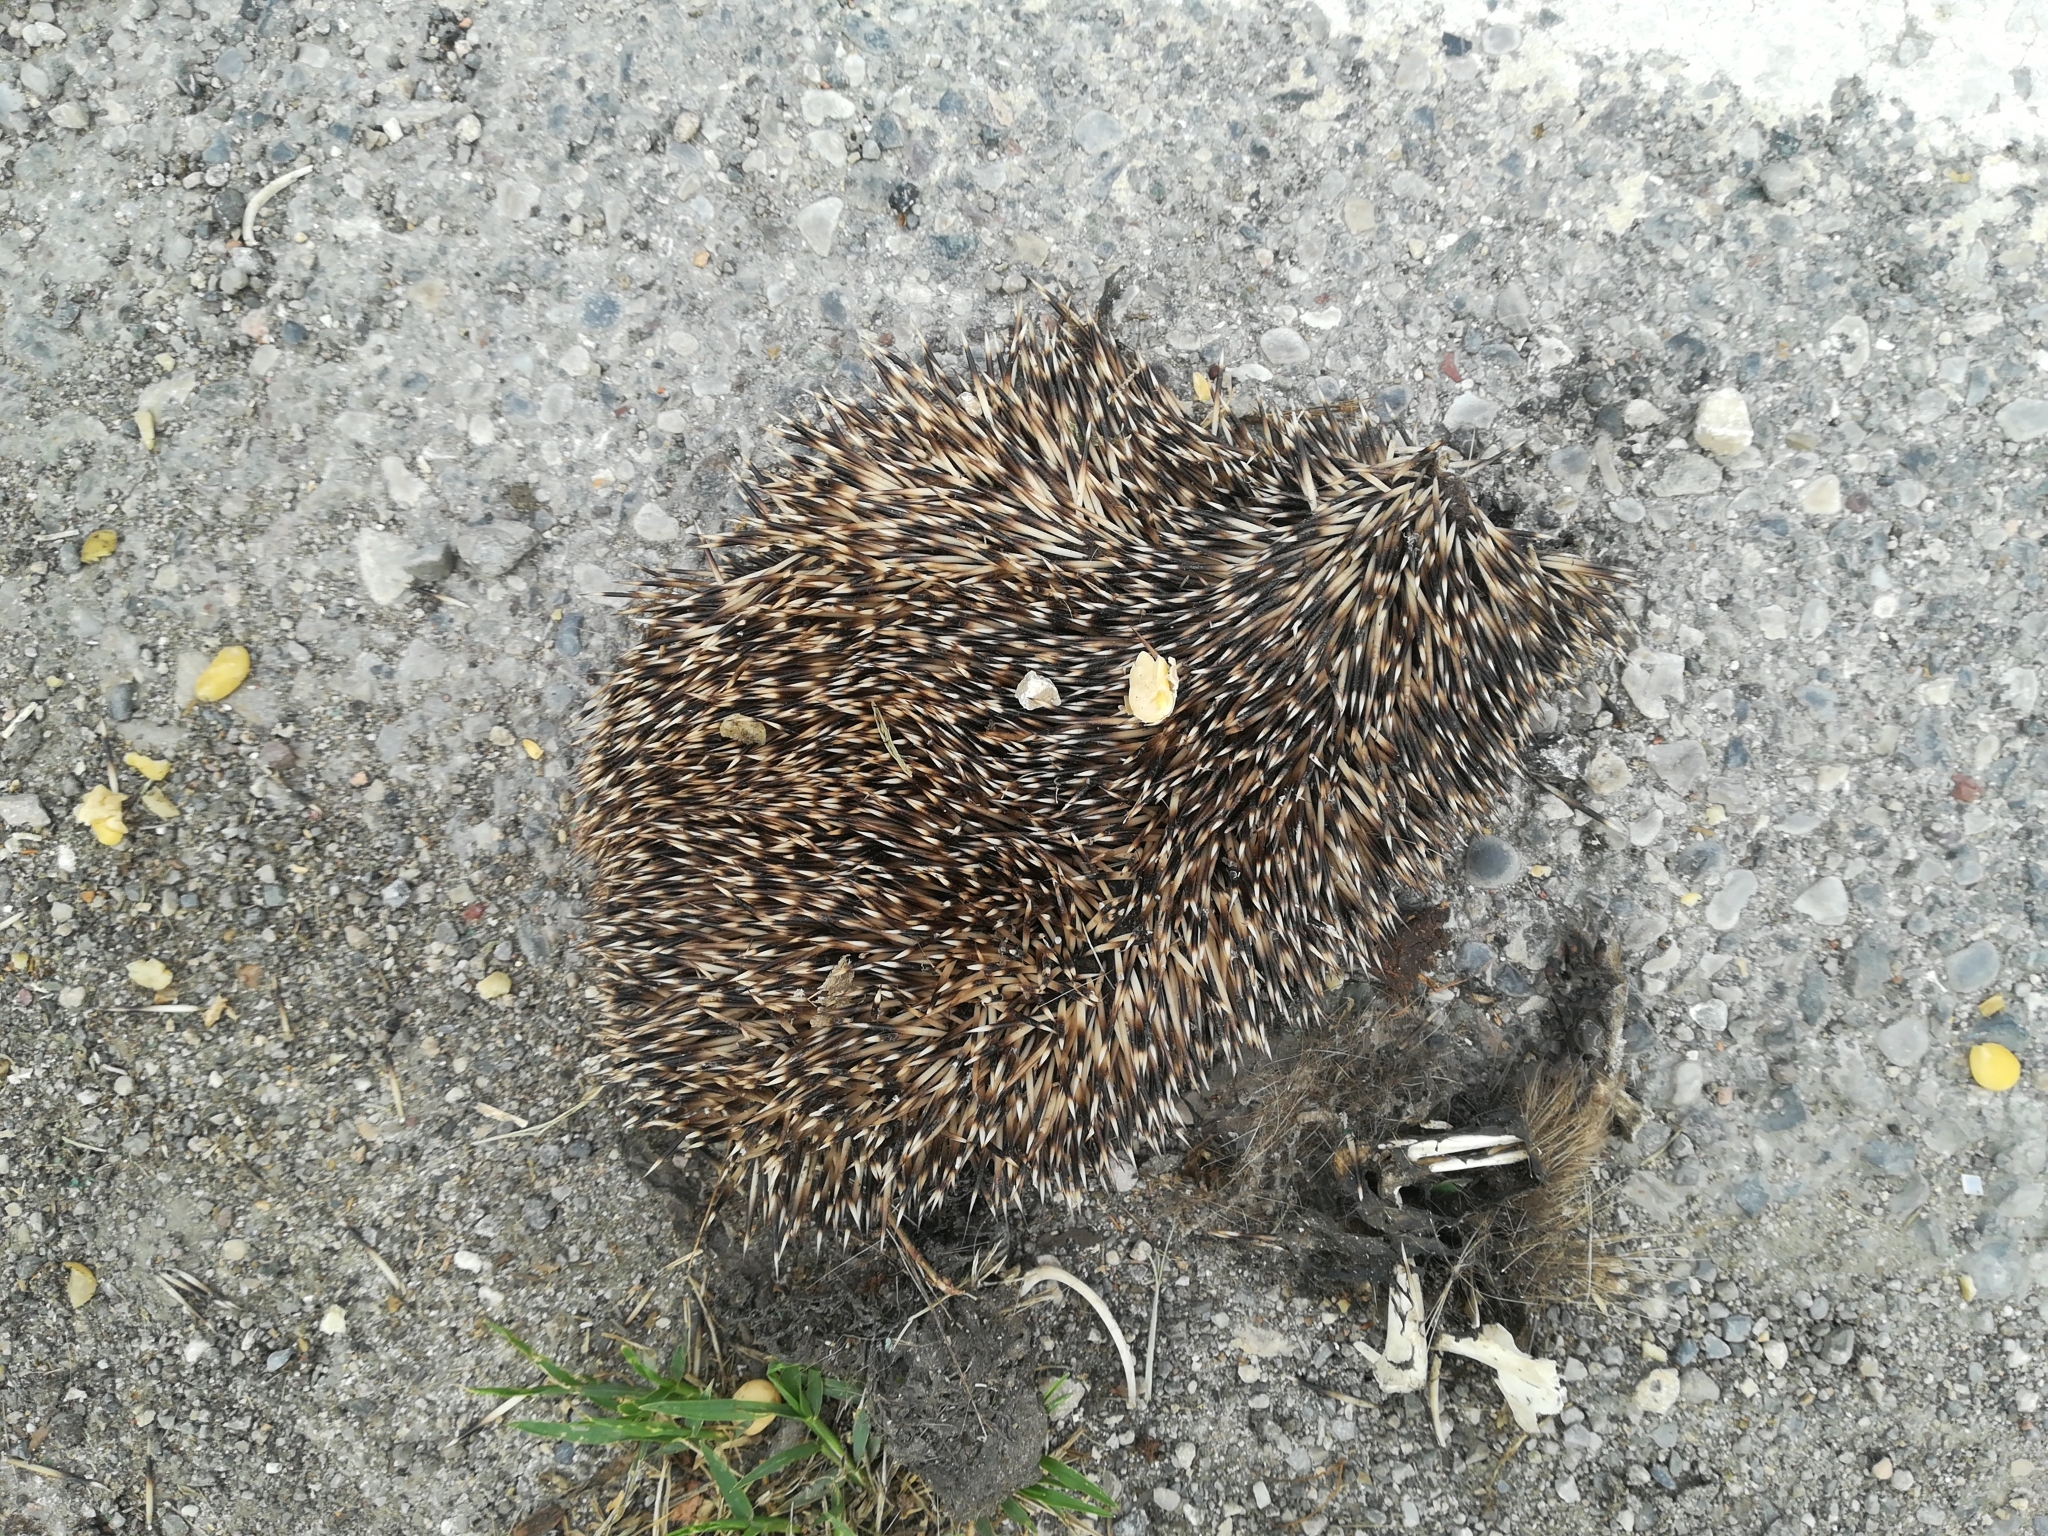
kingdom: Animalia
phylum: Chordata
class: Mammalia
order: Erinaceomorpha
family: Erinaceidae
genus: Erinaceus
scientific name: Erinaceus europaeus
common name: West european hedgehog
